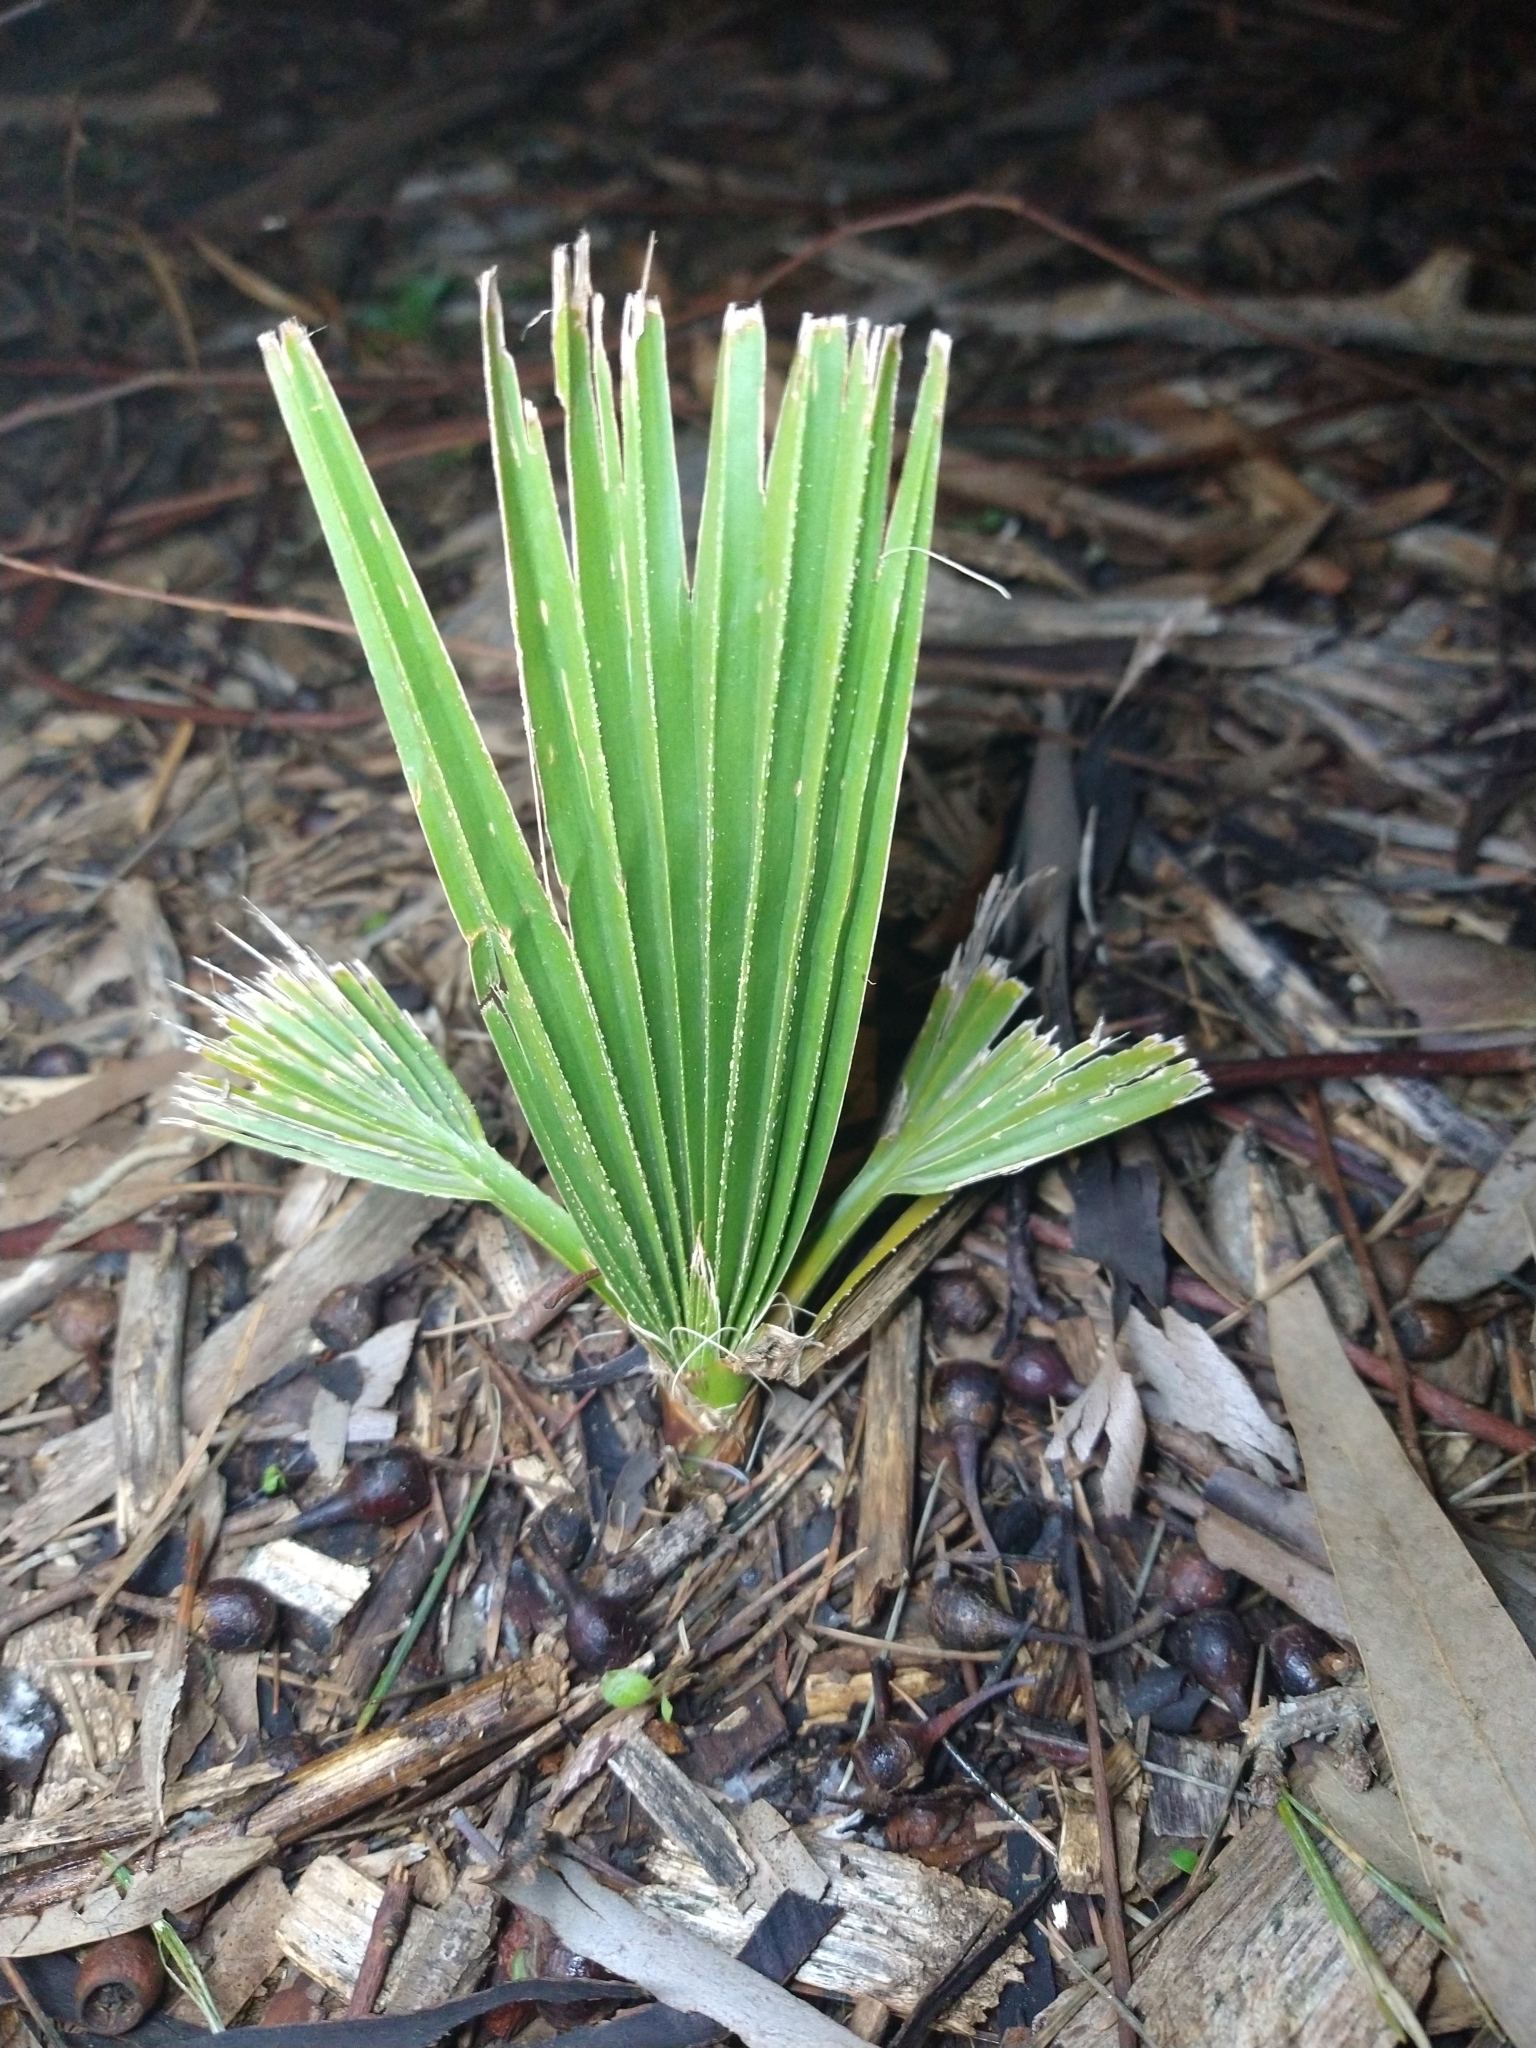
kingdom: Plantae
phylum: Tracheophyta
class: Liliopsida
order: Arecales
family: Arecaceae
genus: Washingtonia
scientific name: Washingtonia filifera
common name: California fan palm
